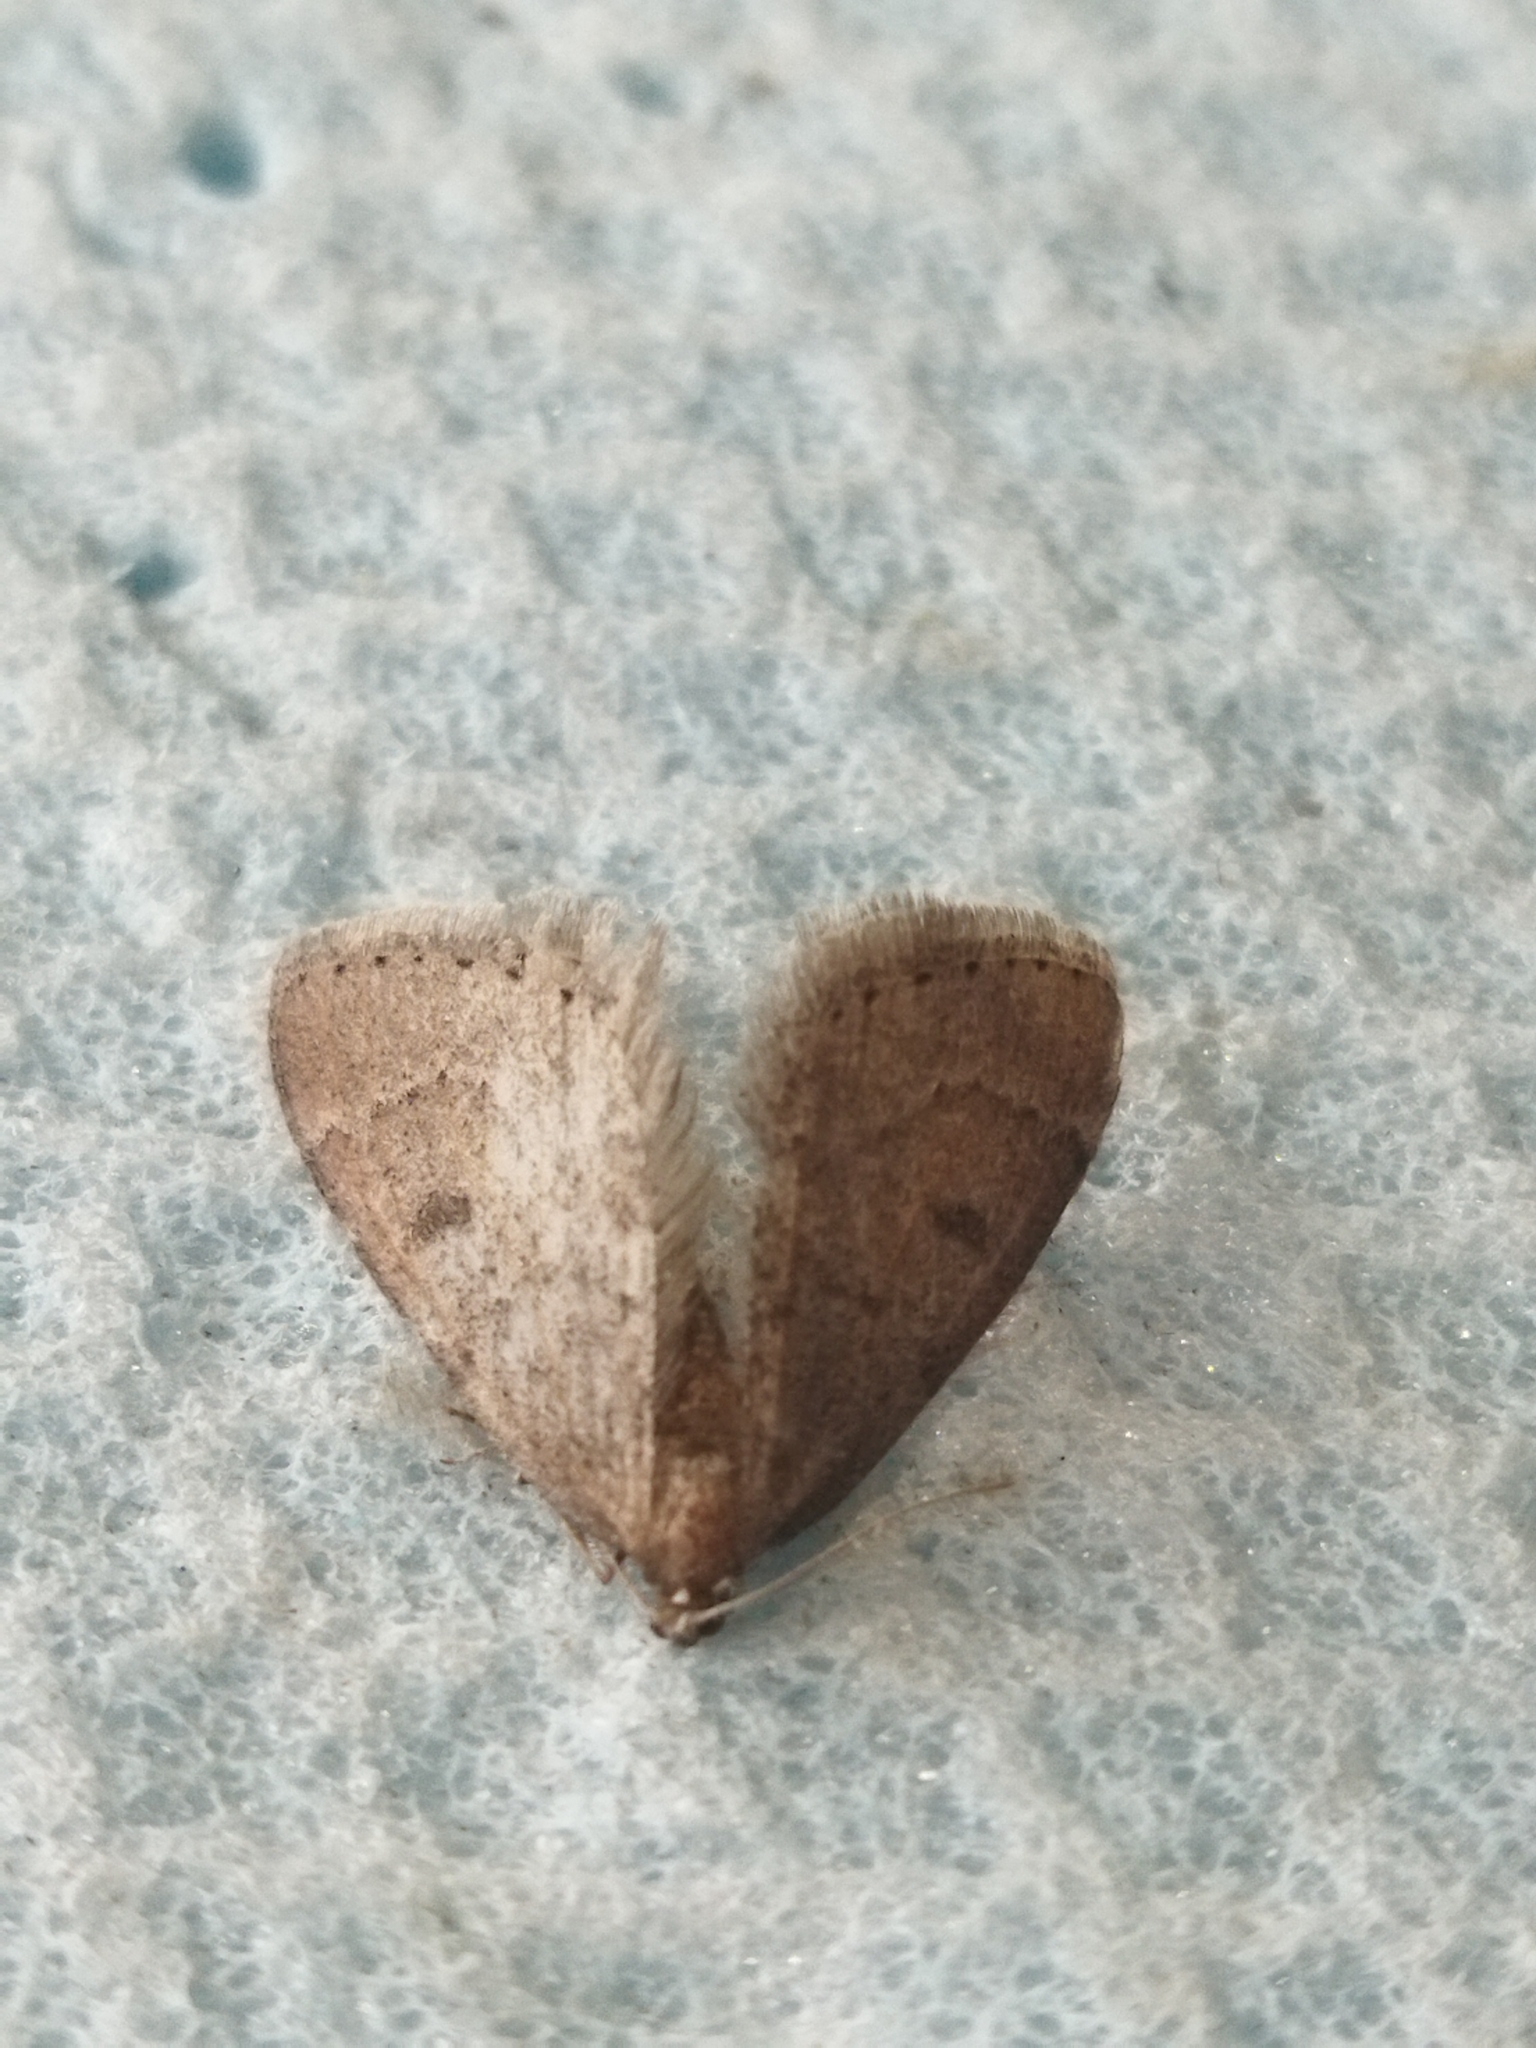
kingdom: Animalia
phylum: Arthropoda
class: Insecta
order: Lepidoptera
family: Geometridae
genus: Theria
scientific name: Theria rupicapraria
